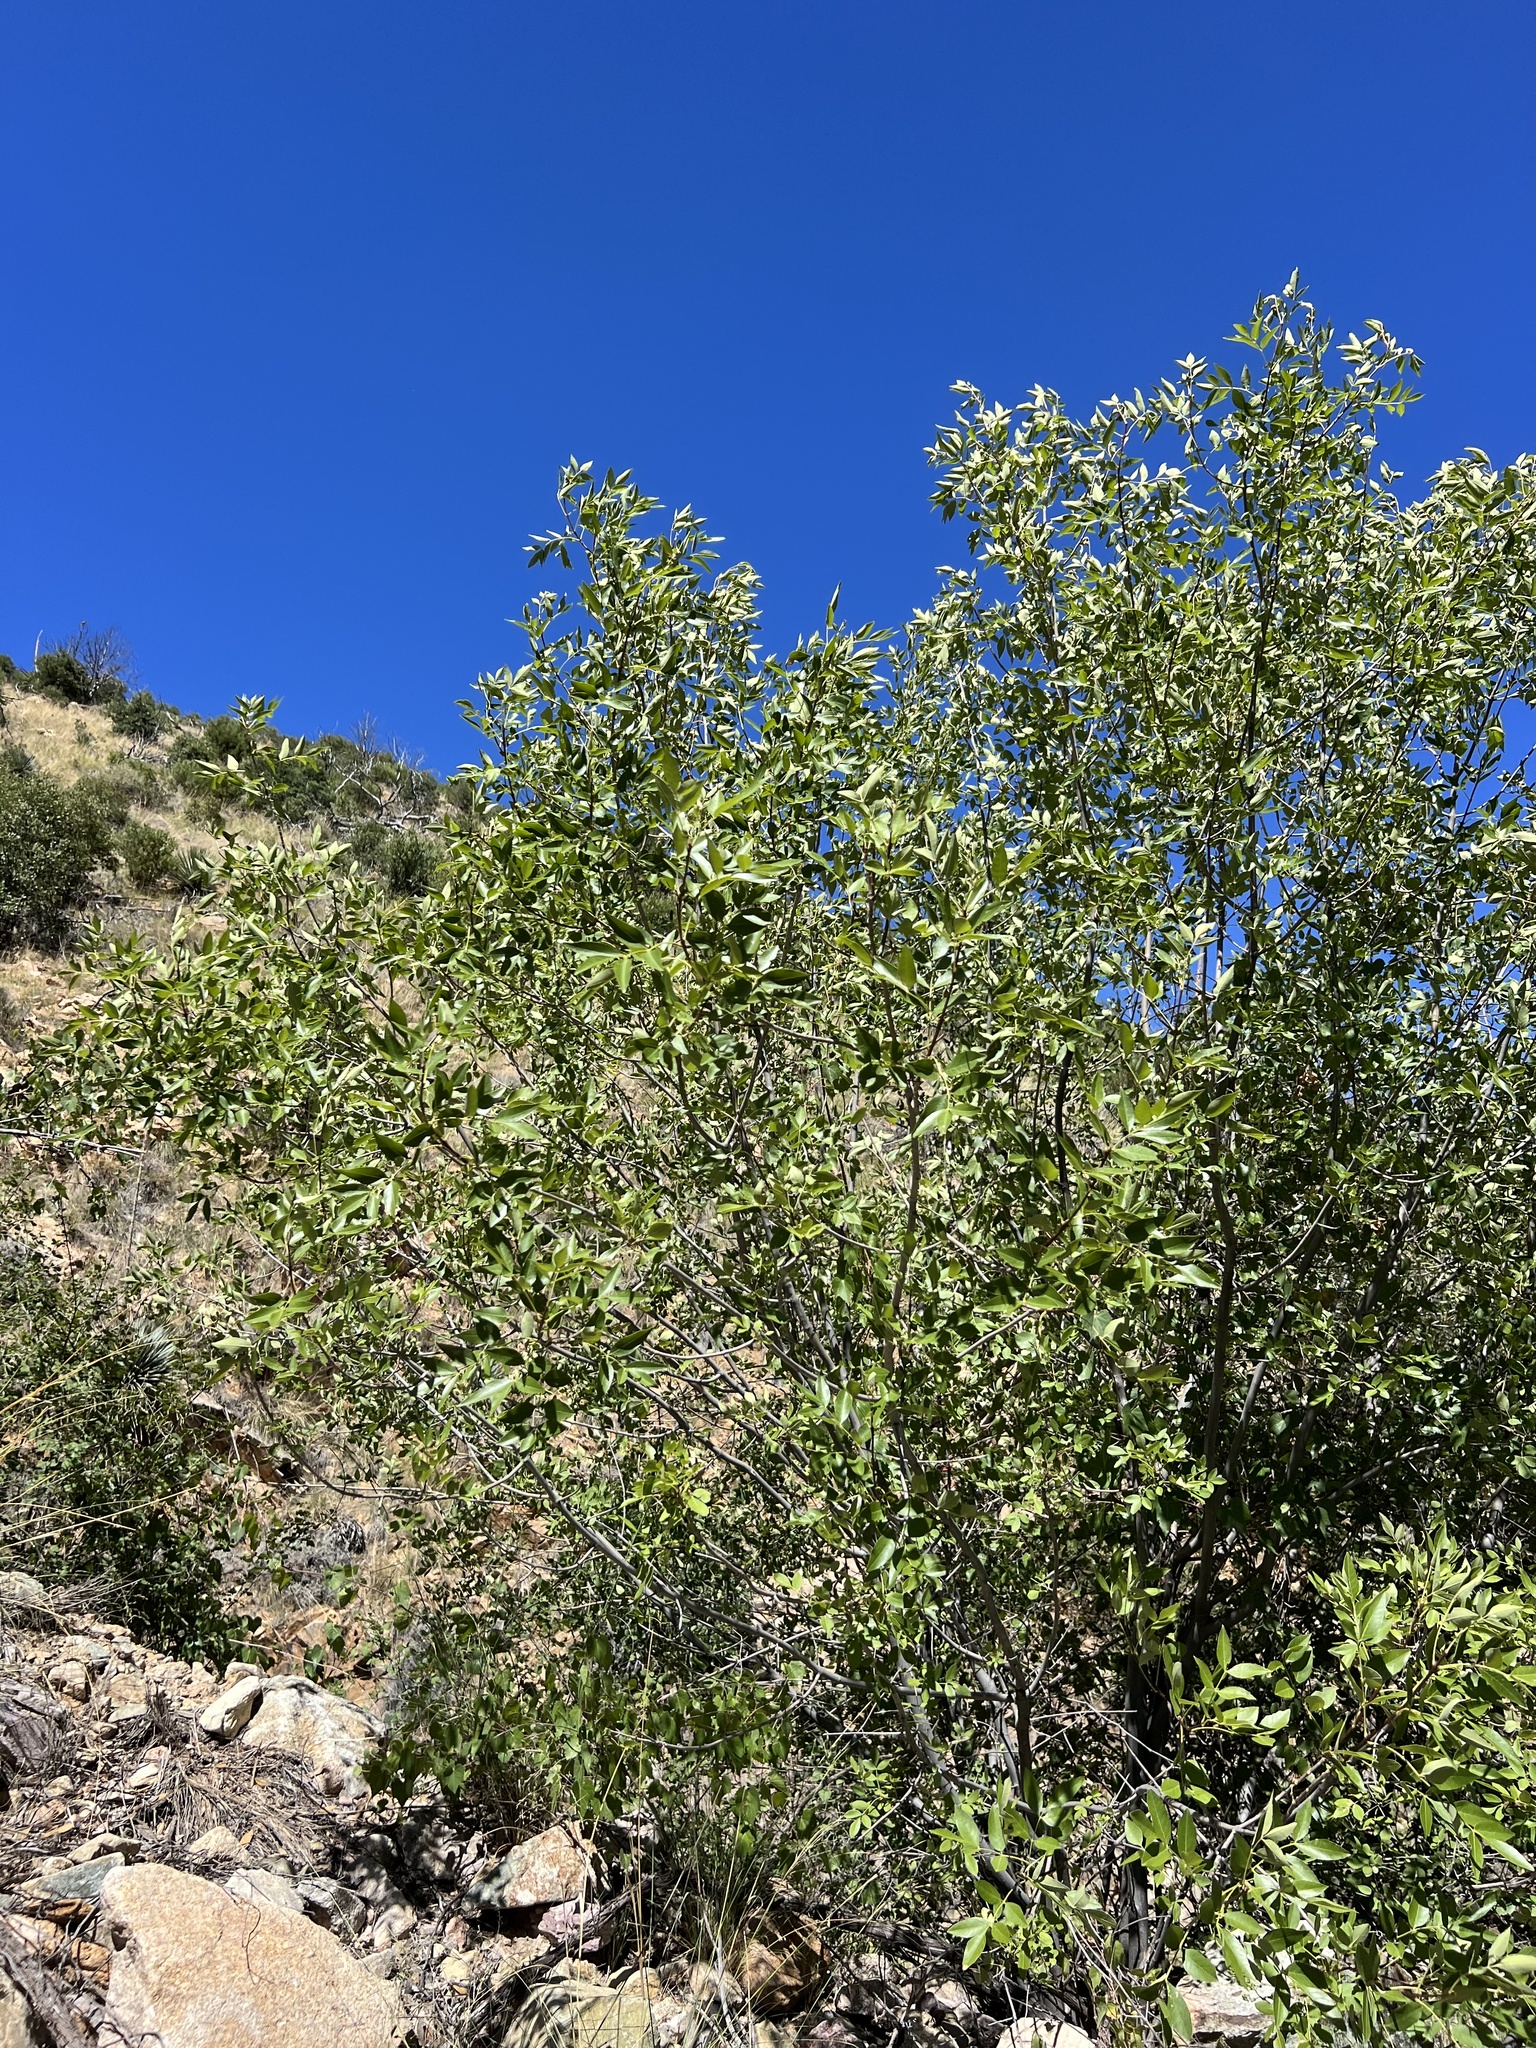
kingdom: Plantae
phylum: Tracheophyta
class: Magnoliopsida
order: Lamiales
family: Oleaceae
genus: Fraxinus
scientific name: Fraxinus velutina
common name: Arizon ash
